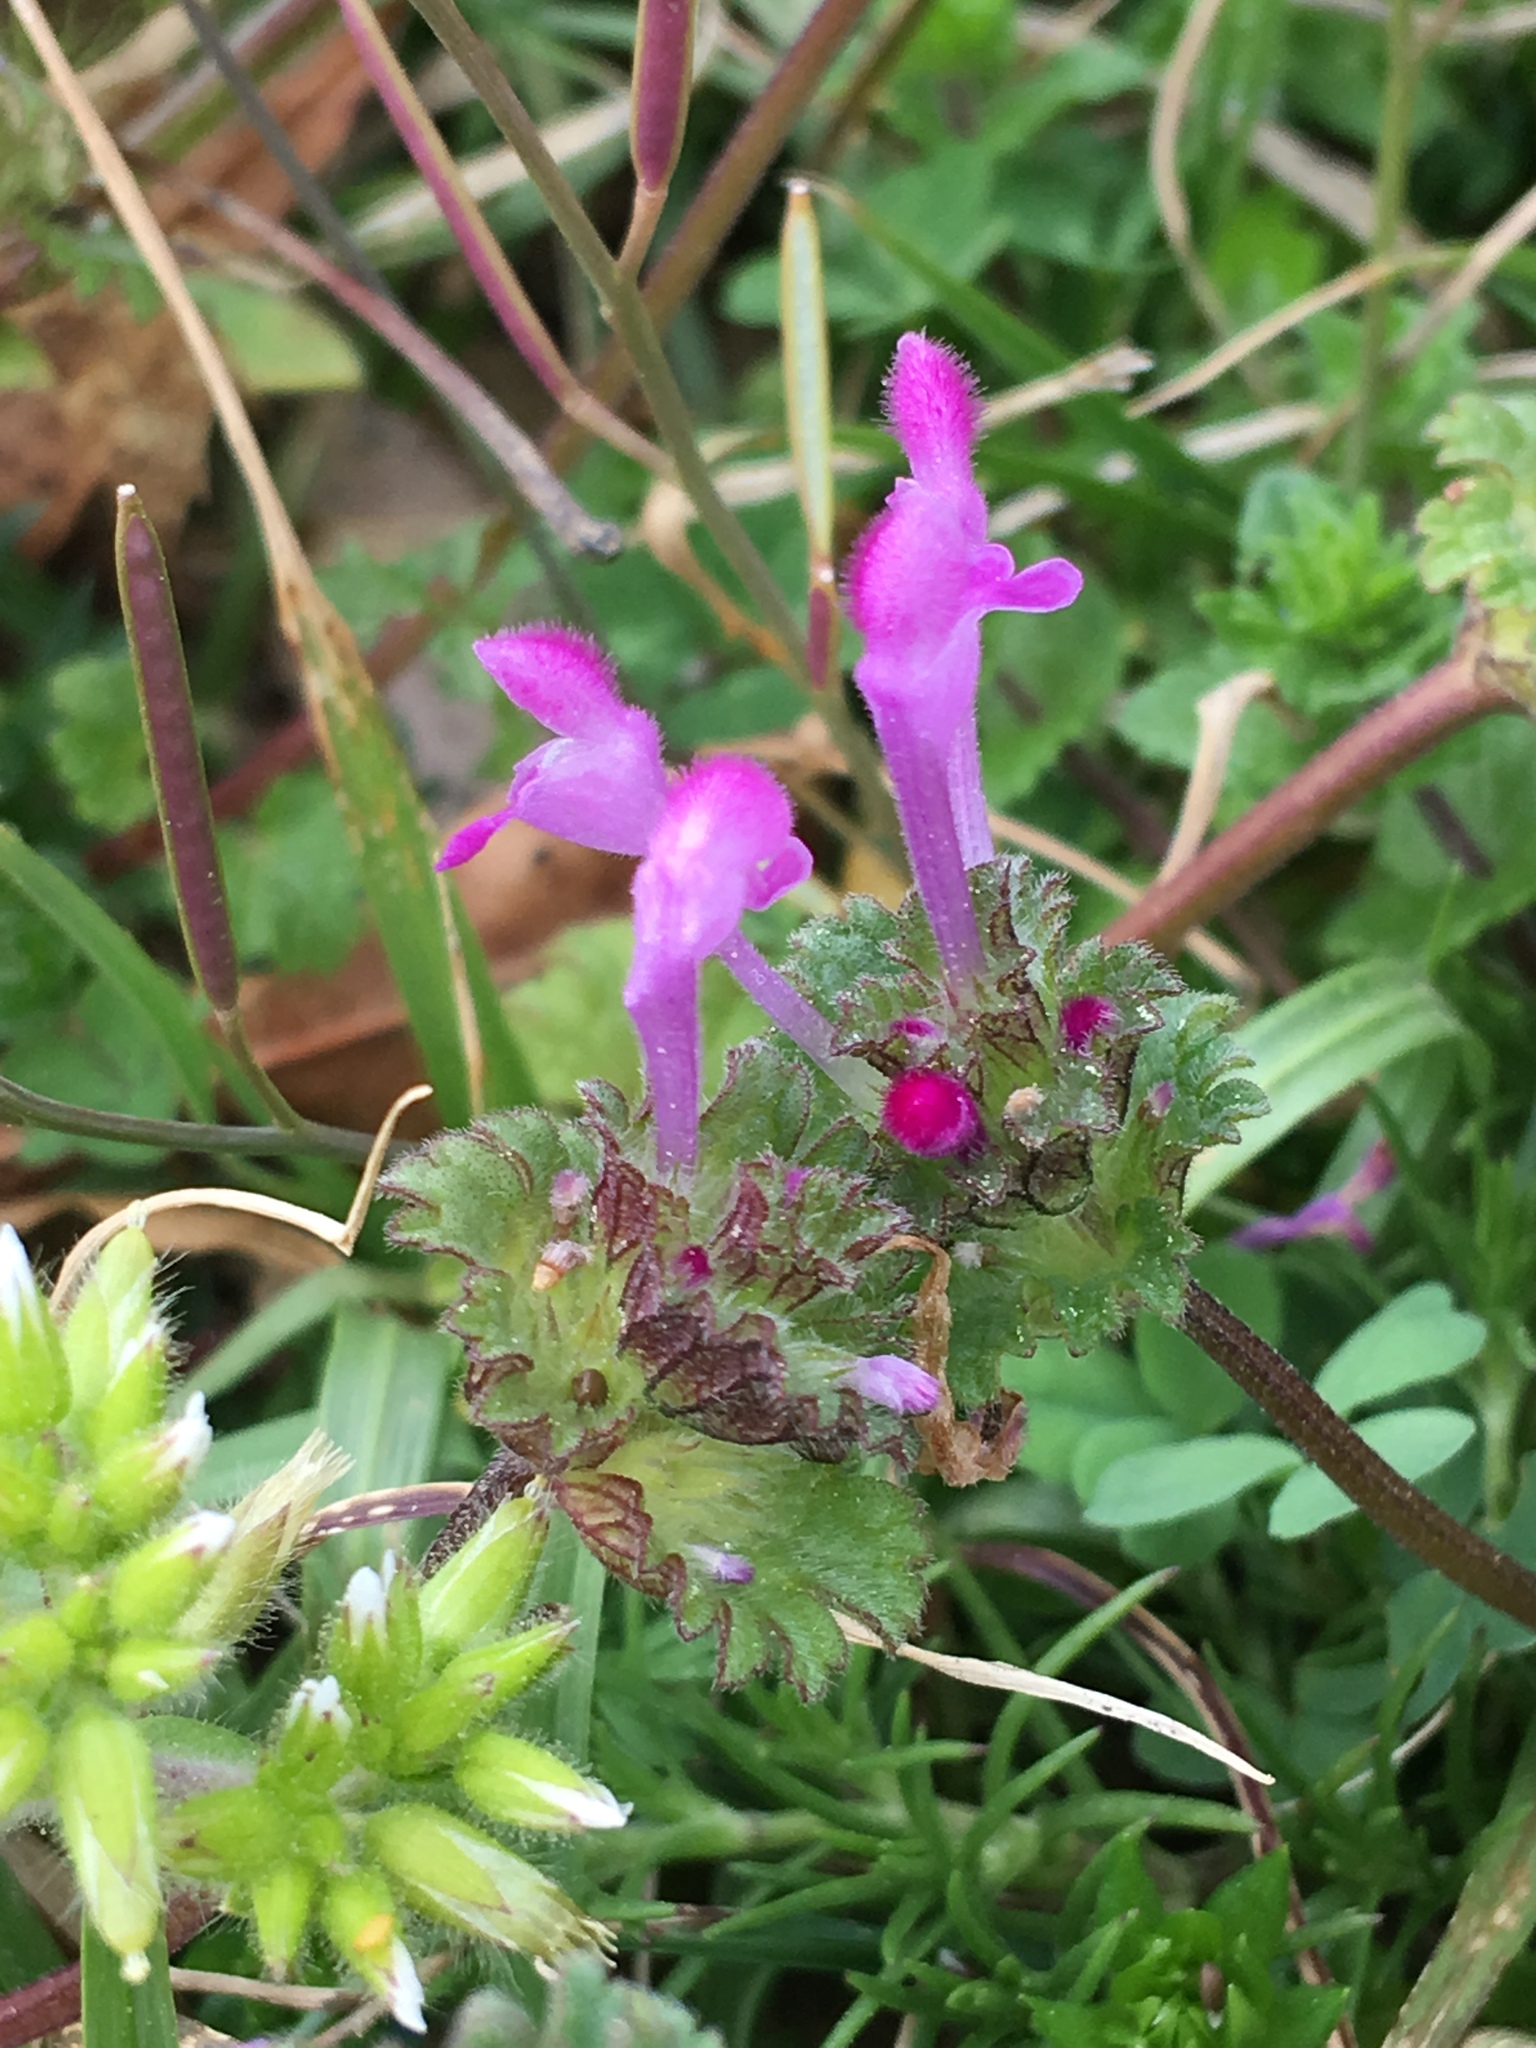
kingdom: Plantae
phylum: Tracheophyta
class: Magnoliopsida
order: Lamiales
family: Lamiaceae
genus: Lamium
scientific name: Lamium amplexicaule
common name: Henbit dead-nettle
